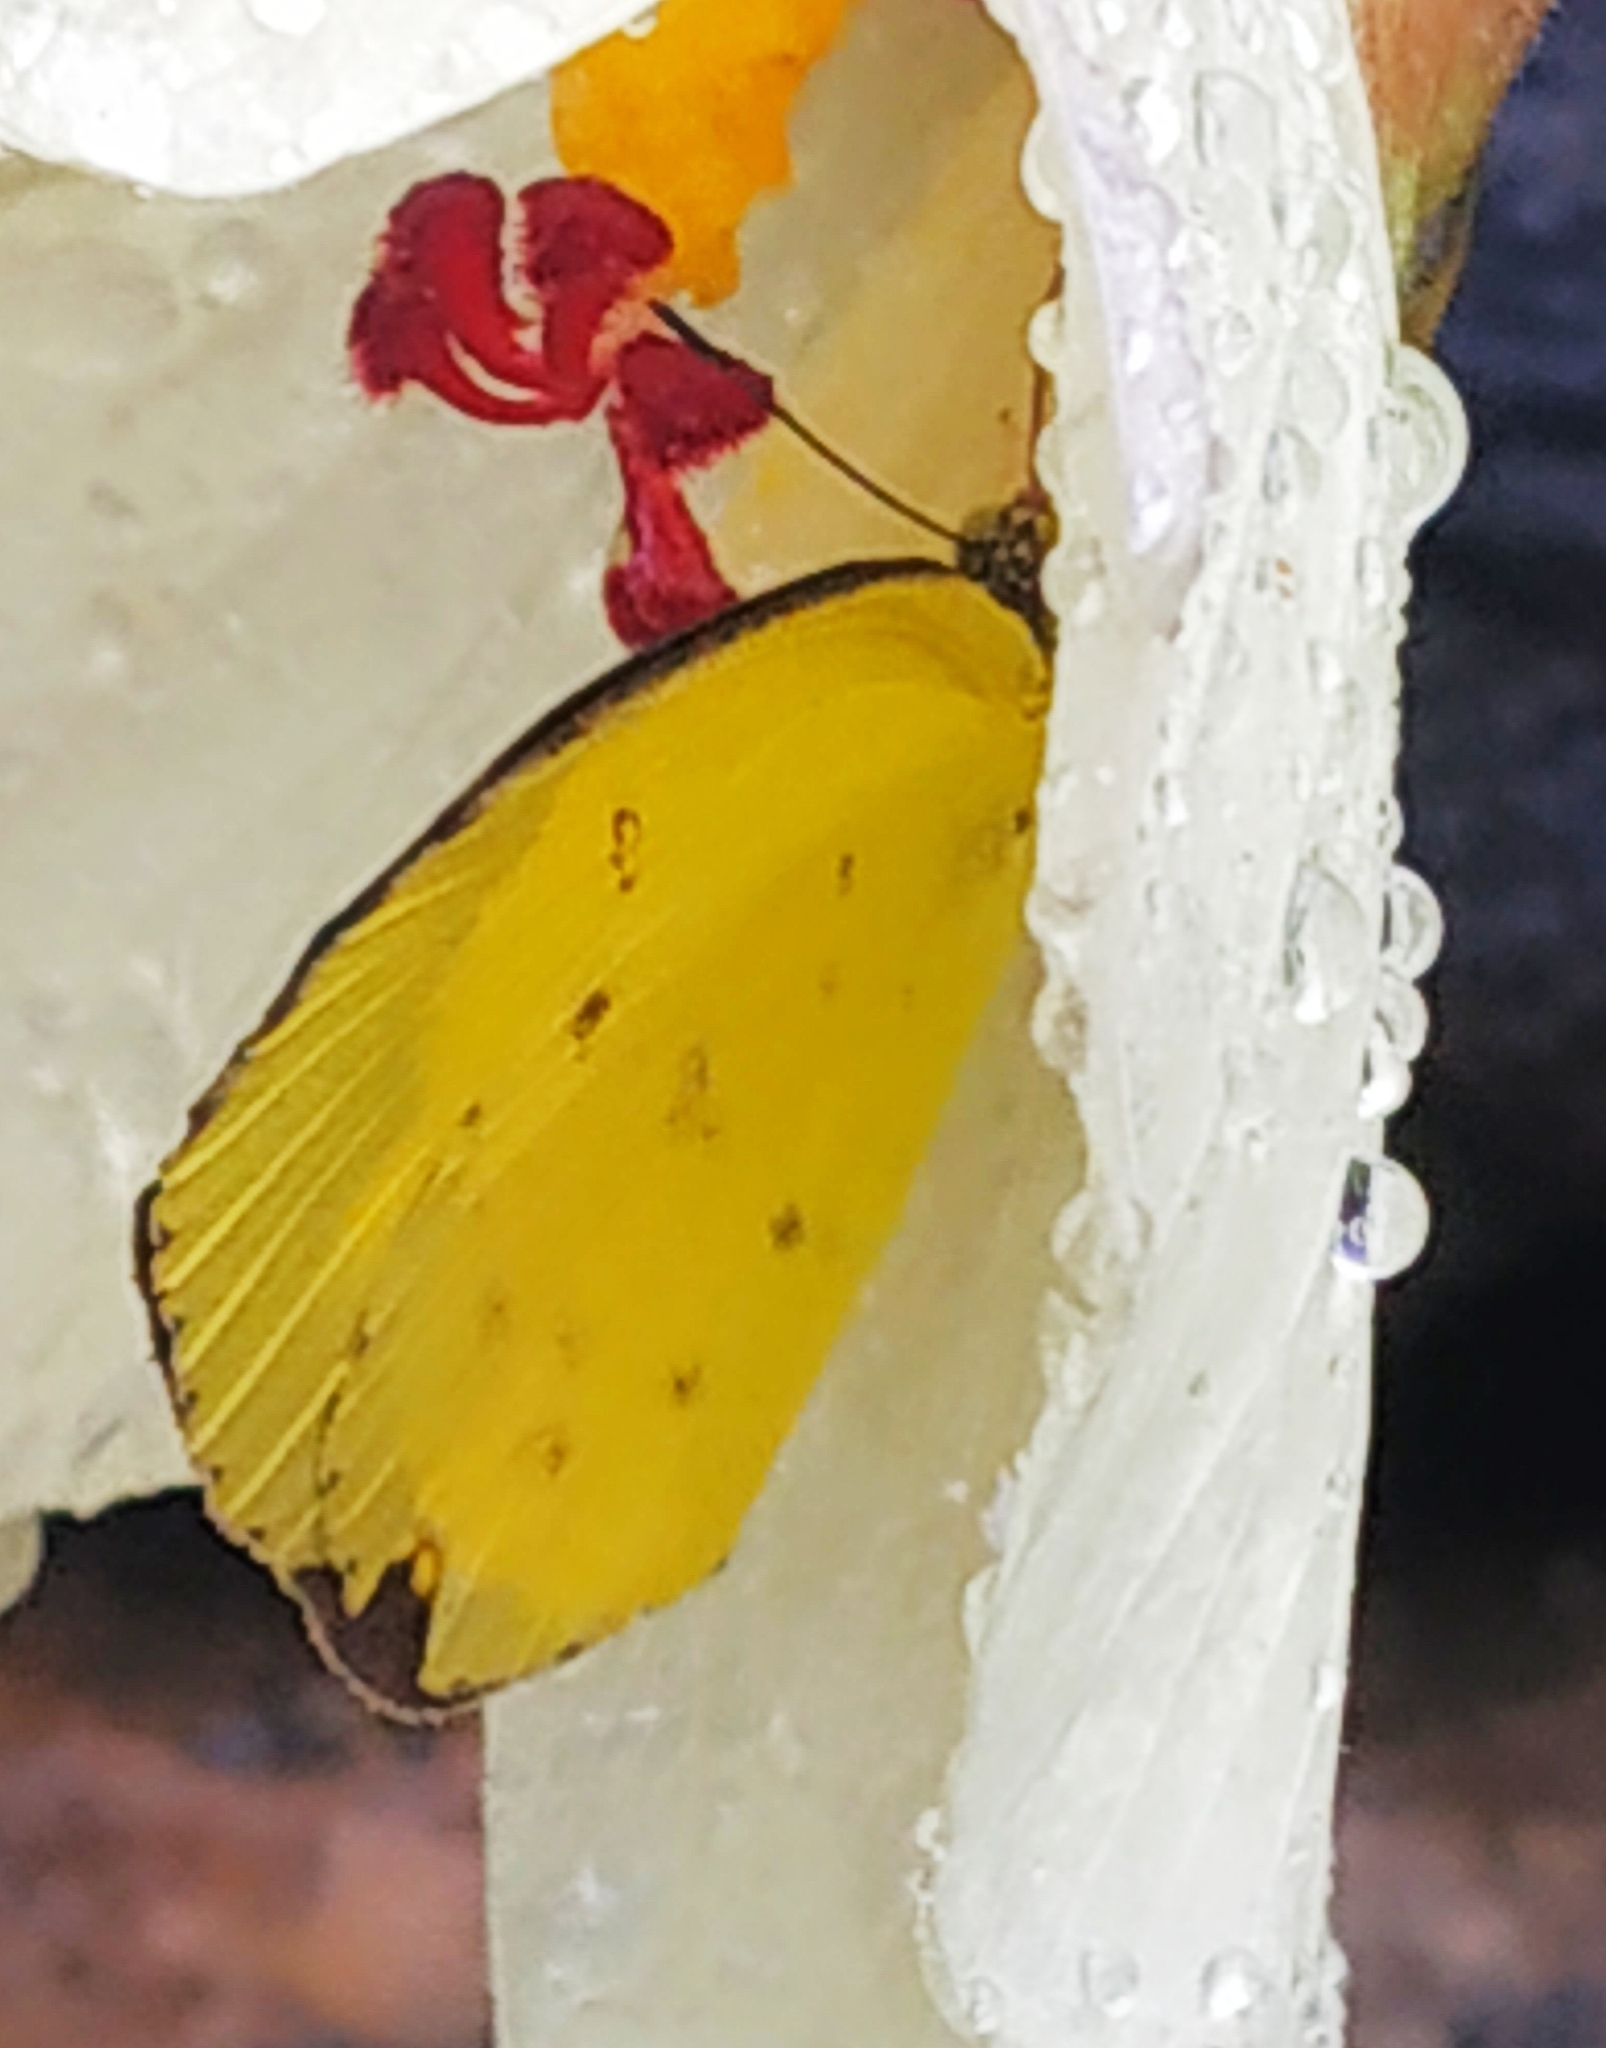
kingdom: Animalia
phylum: Arthropoda
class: Insecta
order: Lepidoptera
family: Pieridae
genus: Eurema
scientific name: Eurema hecabe
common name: Pale grass yellow
